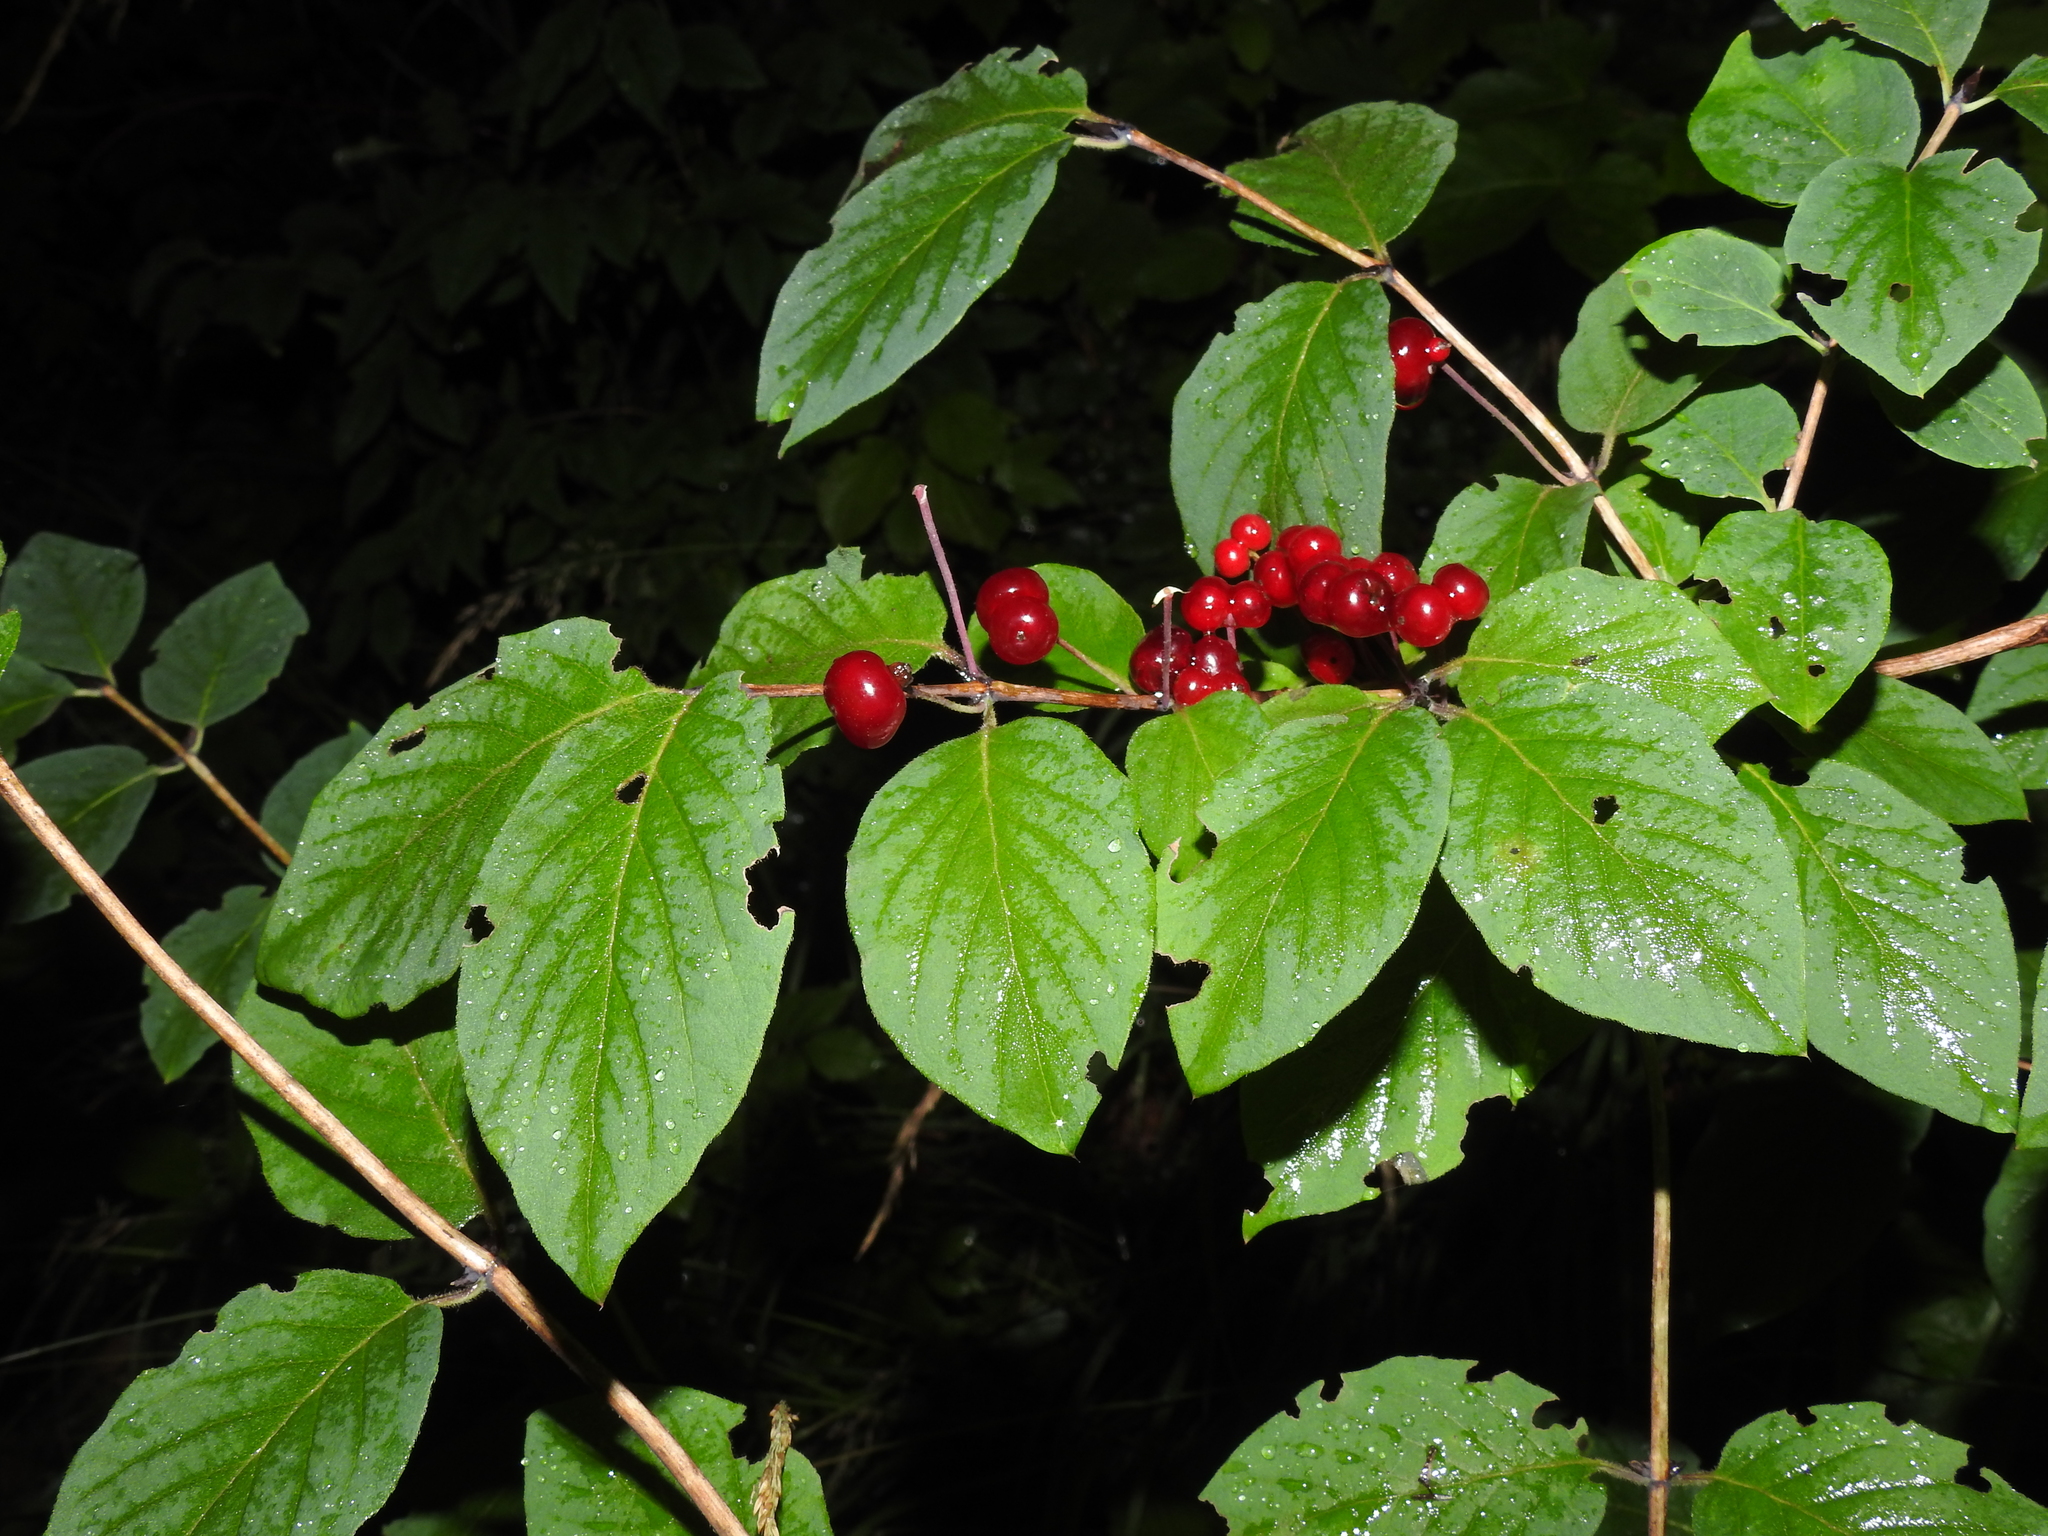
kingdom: Plantae
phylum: Tracheophyta
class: Magnoliopsida
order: Dipsacales
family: Caprifoliaceae
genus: Lonicera
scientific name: Lonicera xylosteum
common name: Fly honeysuckle
